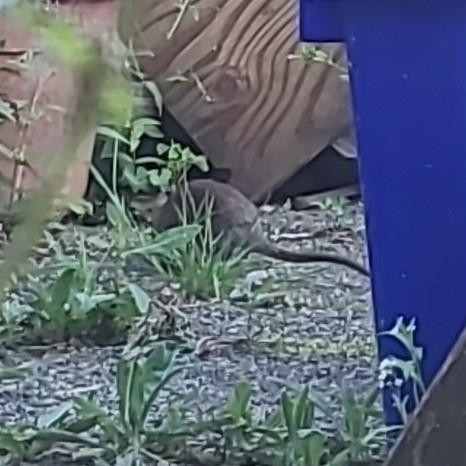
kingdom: Animalia
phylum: Chordata
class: Mammalia
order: Rodentia
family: Muridae
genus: Rattus
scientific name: Rattus norvegicus
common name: Brown rat
